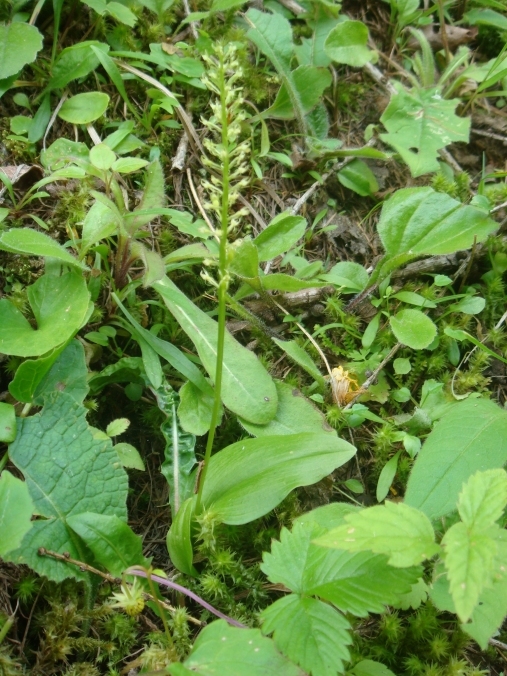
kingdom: Plantae
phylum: Tracheophyta
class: Liliopsida
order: Asparagales
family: Orchidaceae
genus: Malaxis
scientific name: Malaxis monophyllos
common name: White adder's-mouth
